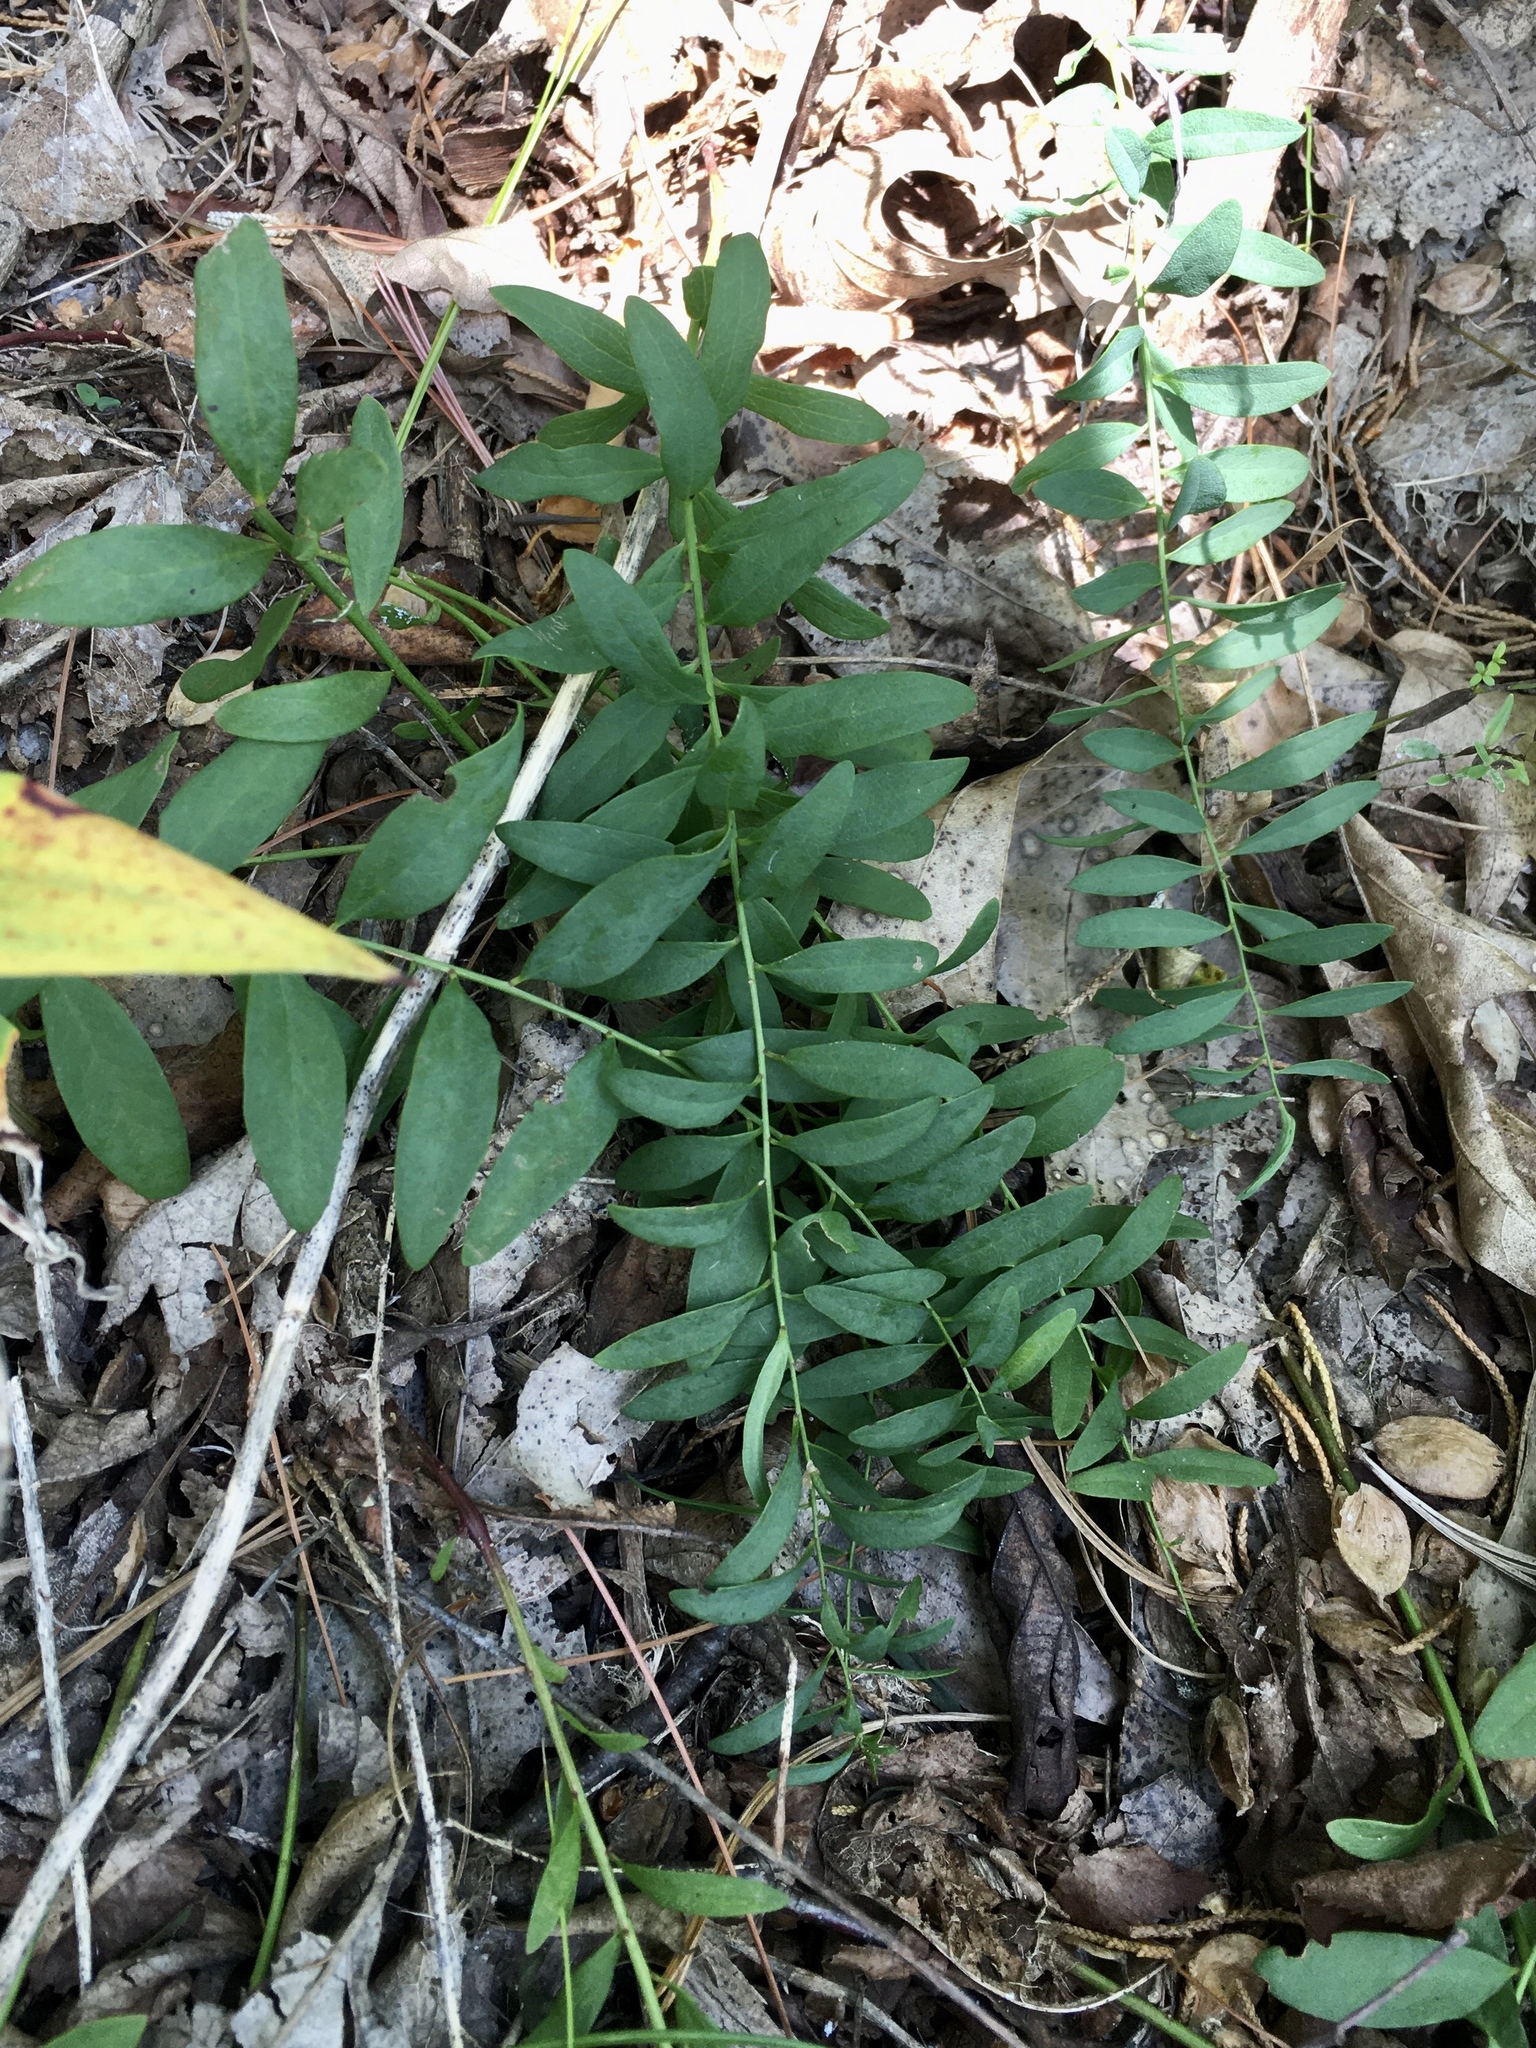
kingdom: Plantae
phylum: Tracheophyta
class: Magnoliopsida
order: Santalales
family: Comandraceae
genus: Comandra
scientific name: Comandra umbellata
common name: Bastard toadflax
